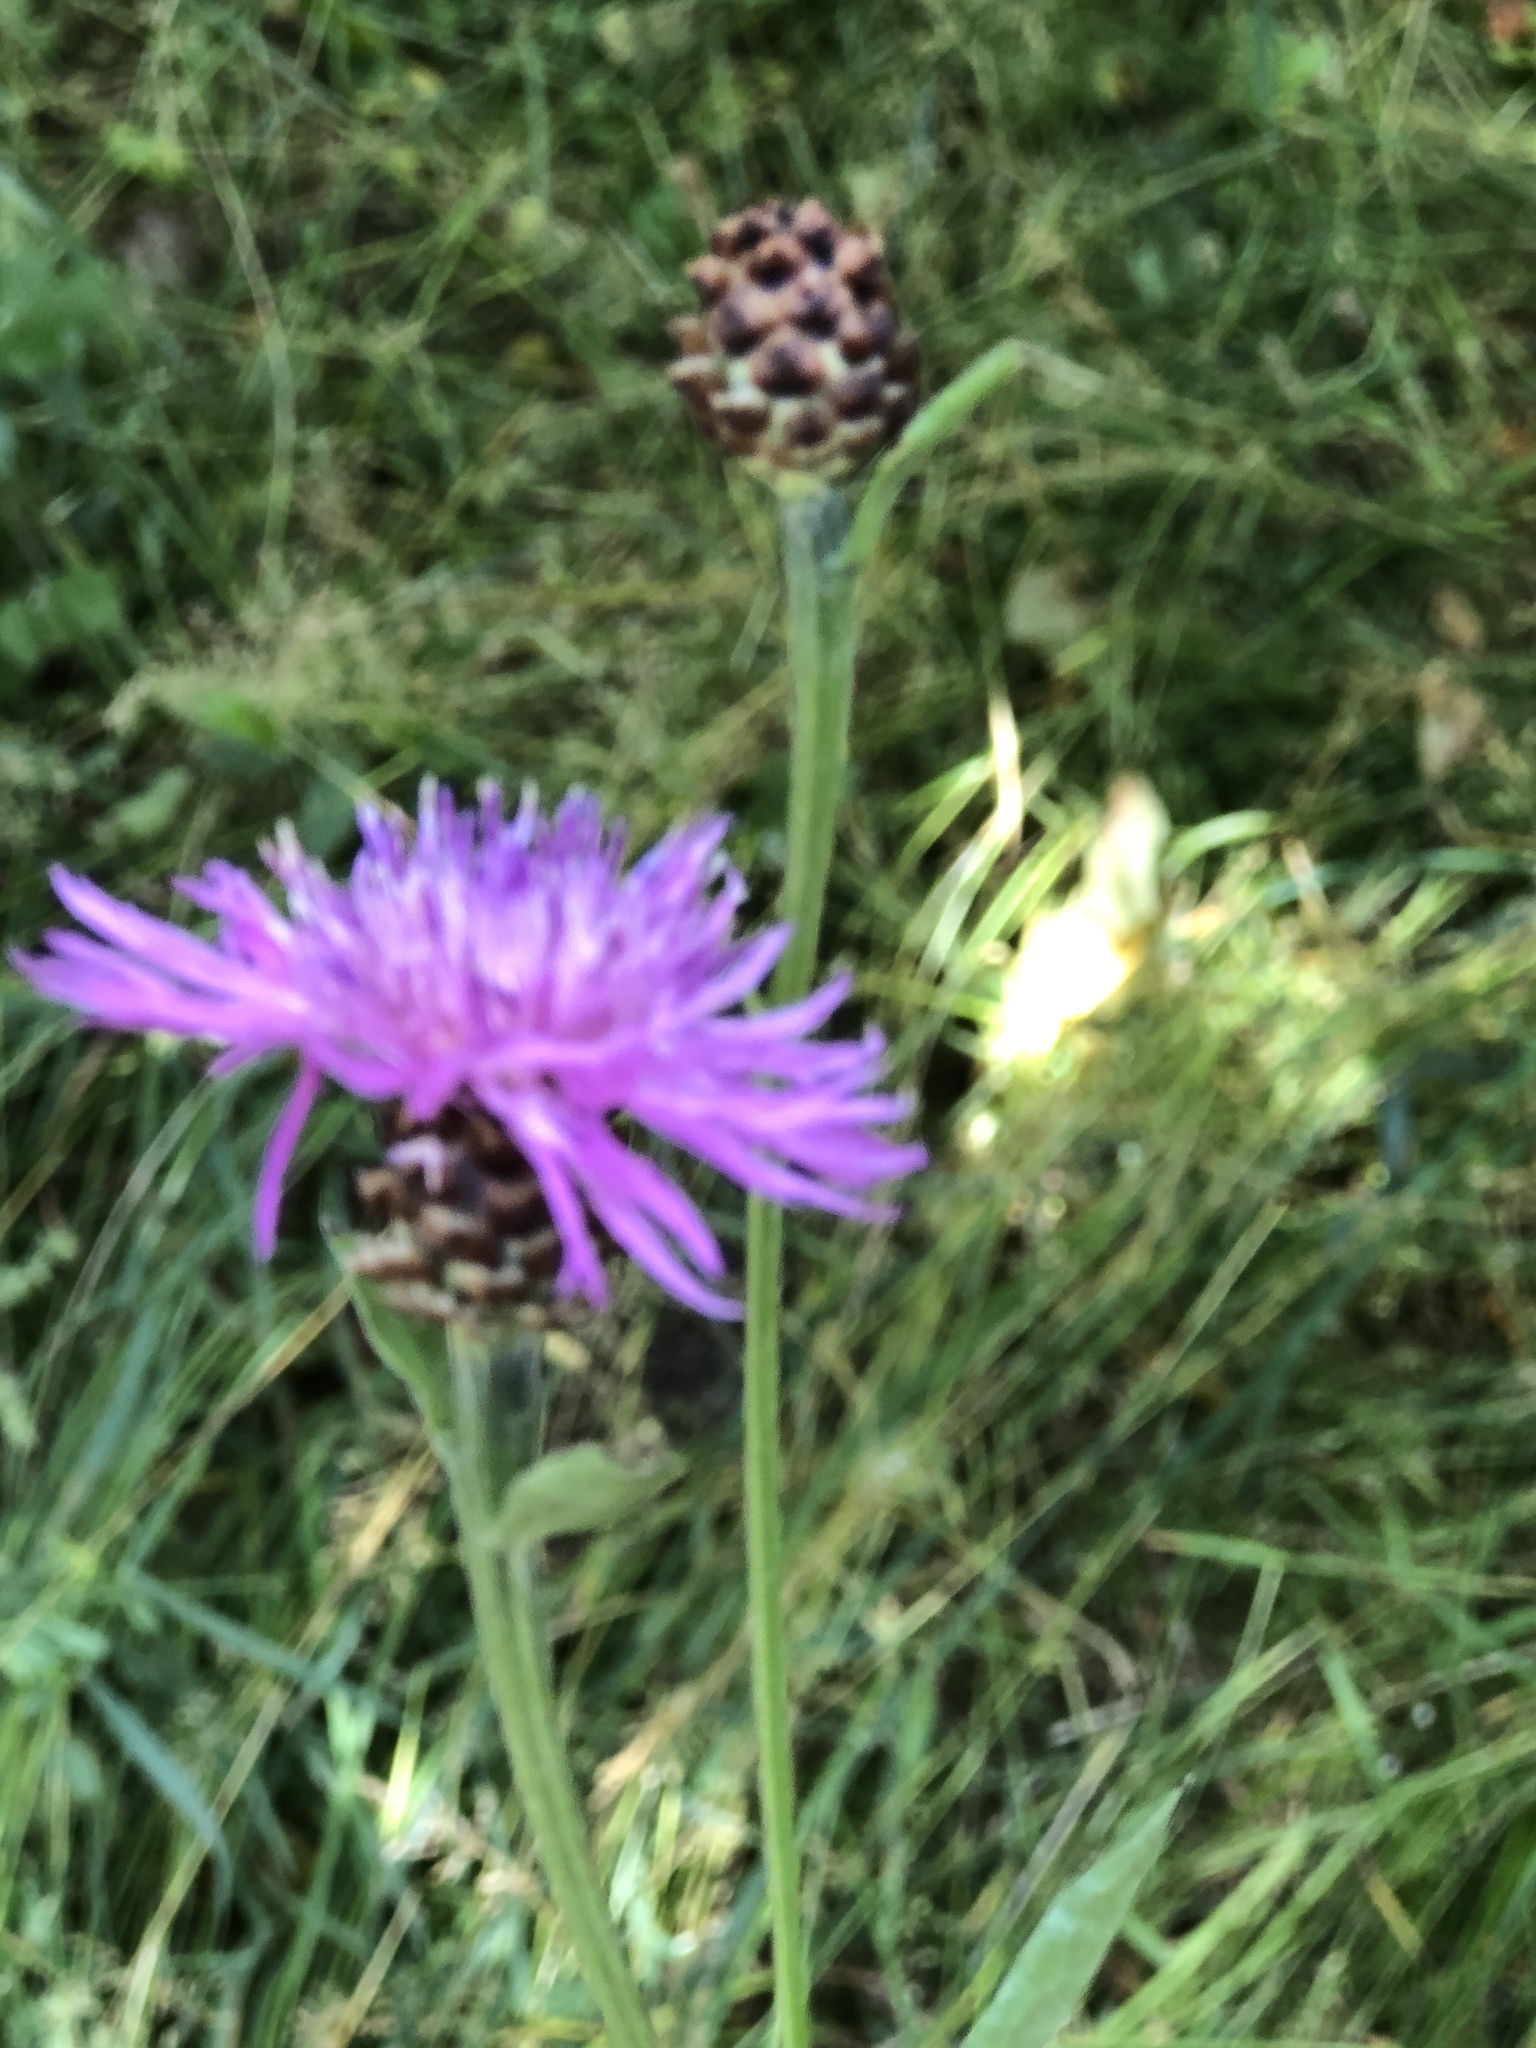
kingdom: Plantae
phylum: Tracheophyta
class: Magnoliopsida
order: Asterales
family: Asteraceae
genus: Centaurea
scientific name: Centaurea jacea
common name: Brown knapweed
